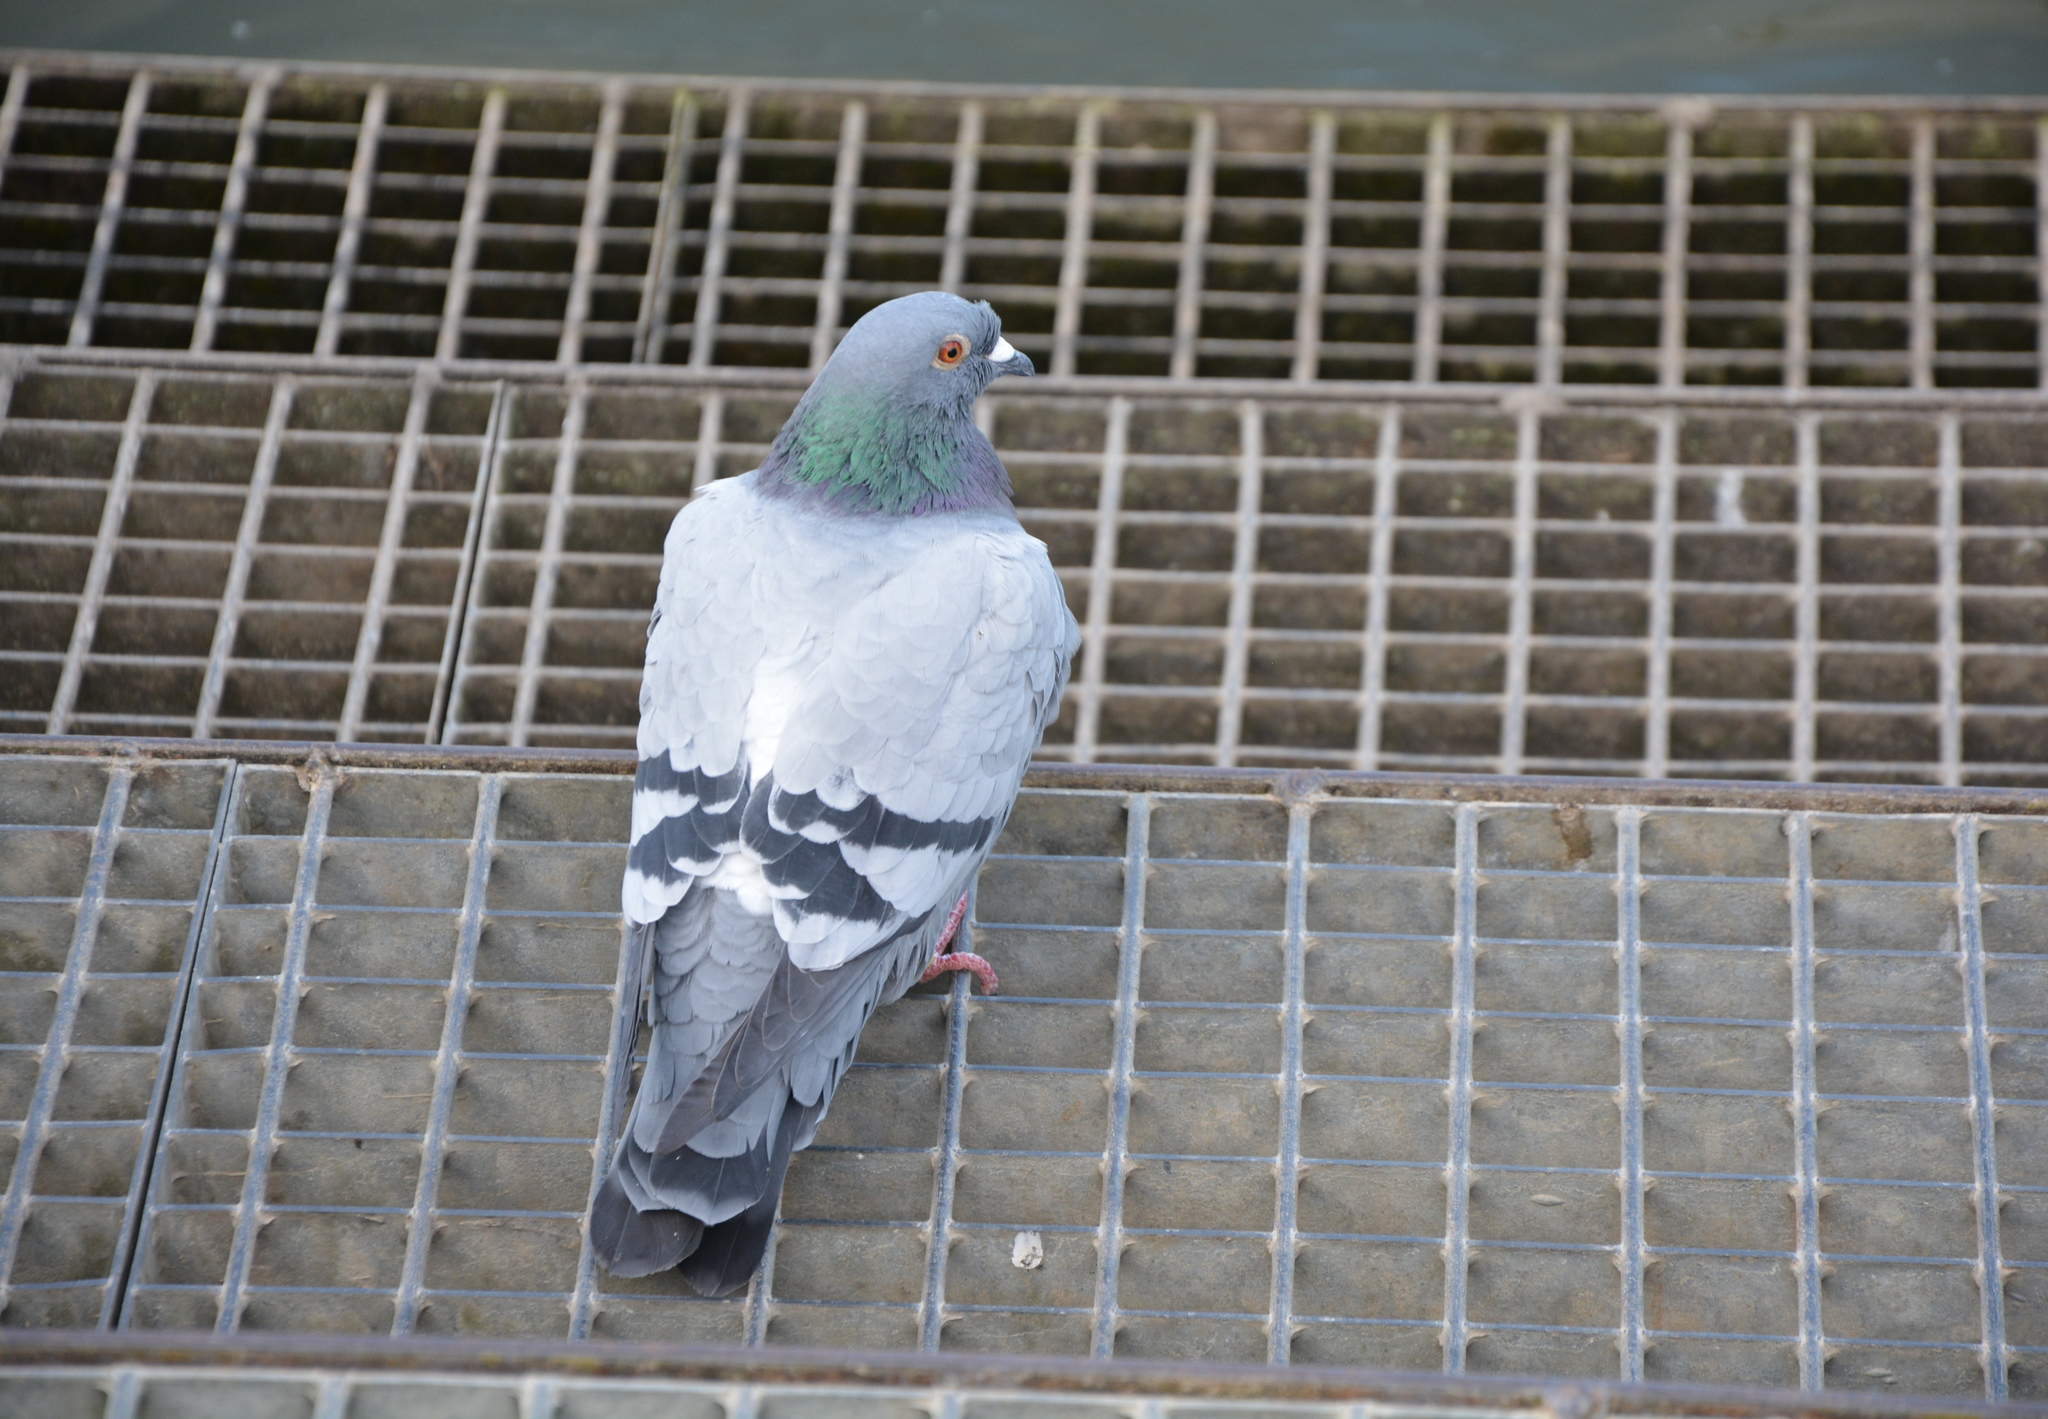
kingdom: Animalia
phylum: Chordata
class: Aves
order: Columbiformes
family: Columbidae
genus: Columba
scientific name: Columba livia
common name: Rock pigeon
